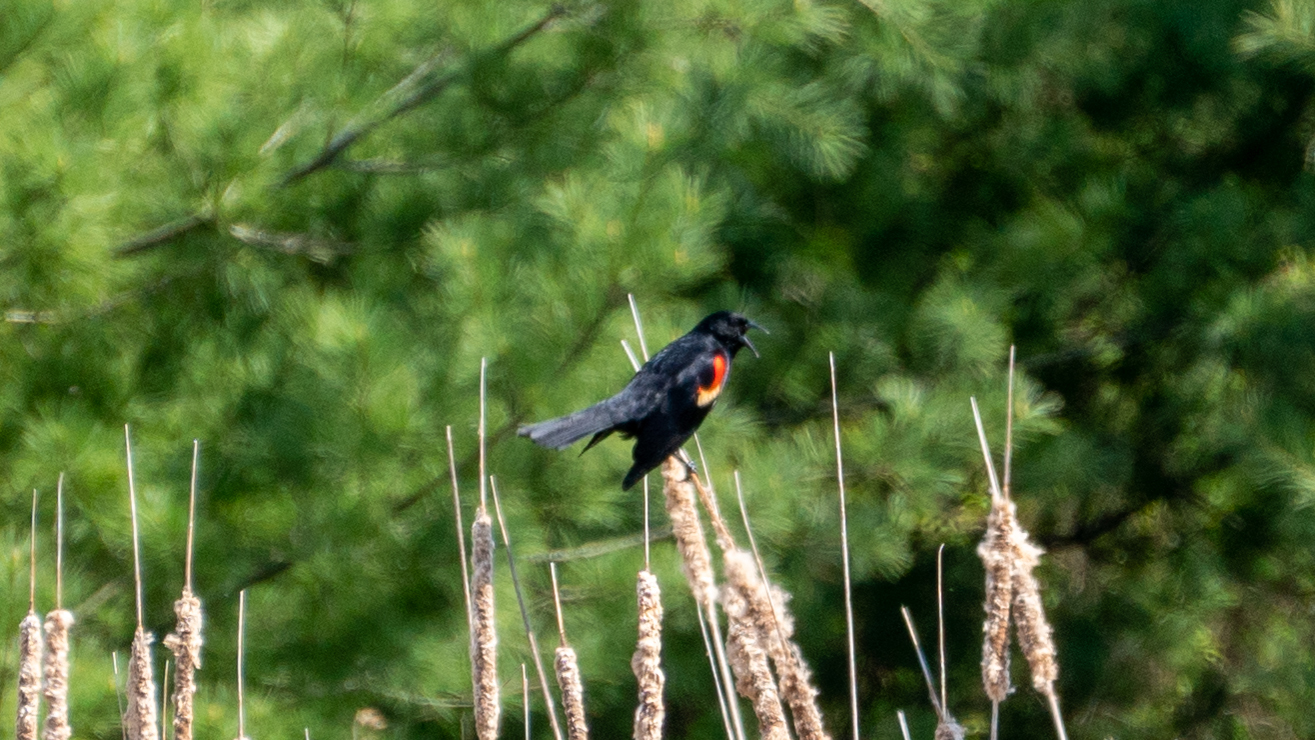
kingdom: Animalia
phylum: Chordata
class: Aves
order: Passeriformes
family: Icteridae
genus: Agelaius
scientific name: Agelaius phoeniceus
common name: Red-winged blackbird
